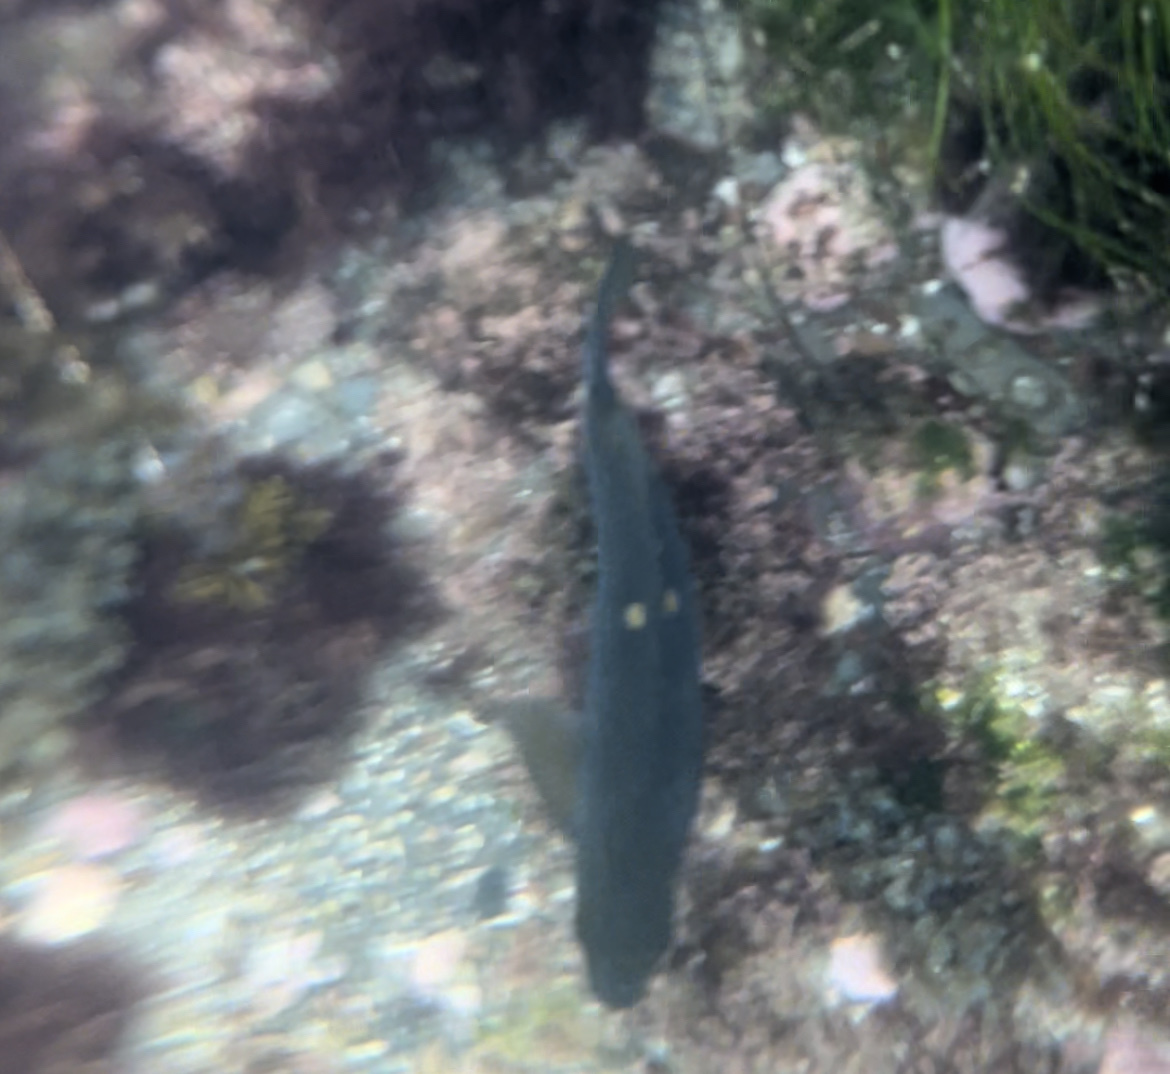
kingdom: Animalia
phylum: Chordata
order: Perciformes
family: Kyphosidae
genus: Girella
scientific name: Girella nigricans
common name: Opaleye
